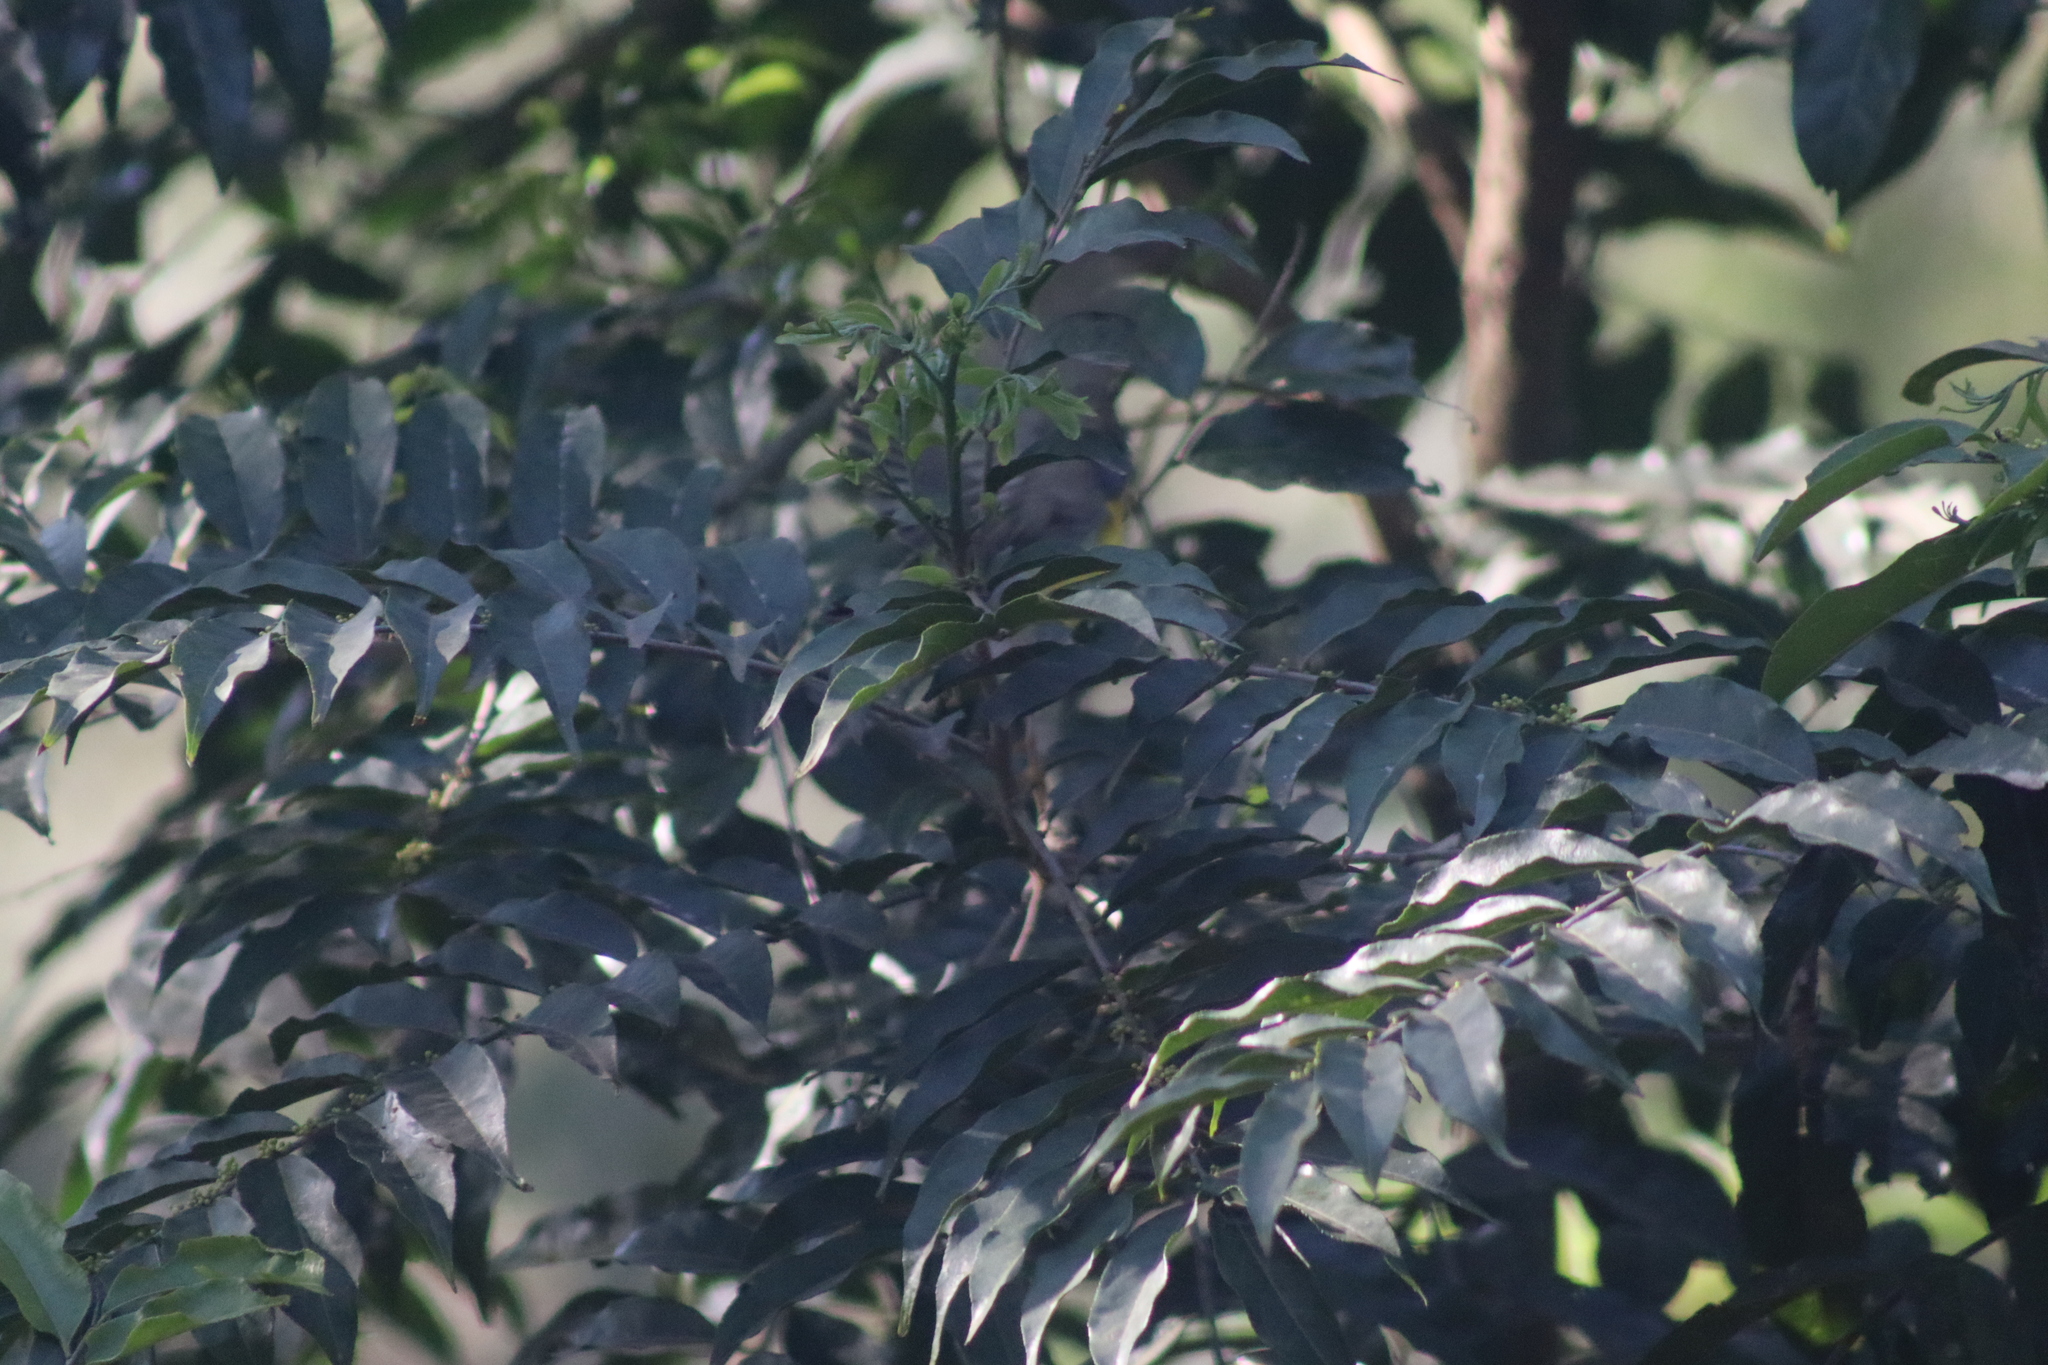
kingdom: Animalia
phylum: Chordata
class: Aves
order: Passeriformes
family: Parulidae
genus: Setophaga
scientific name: Setophaga pitiayumi
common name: Tropical parula
